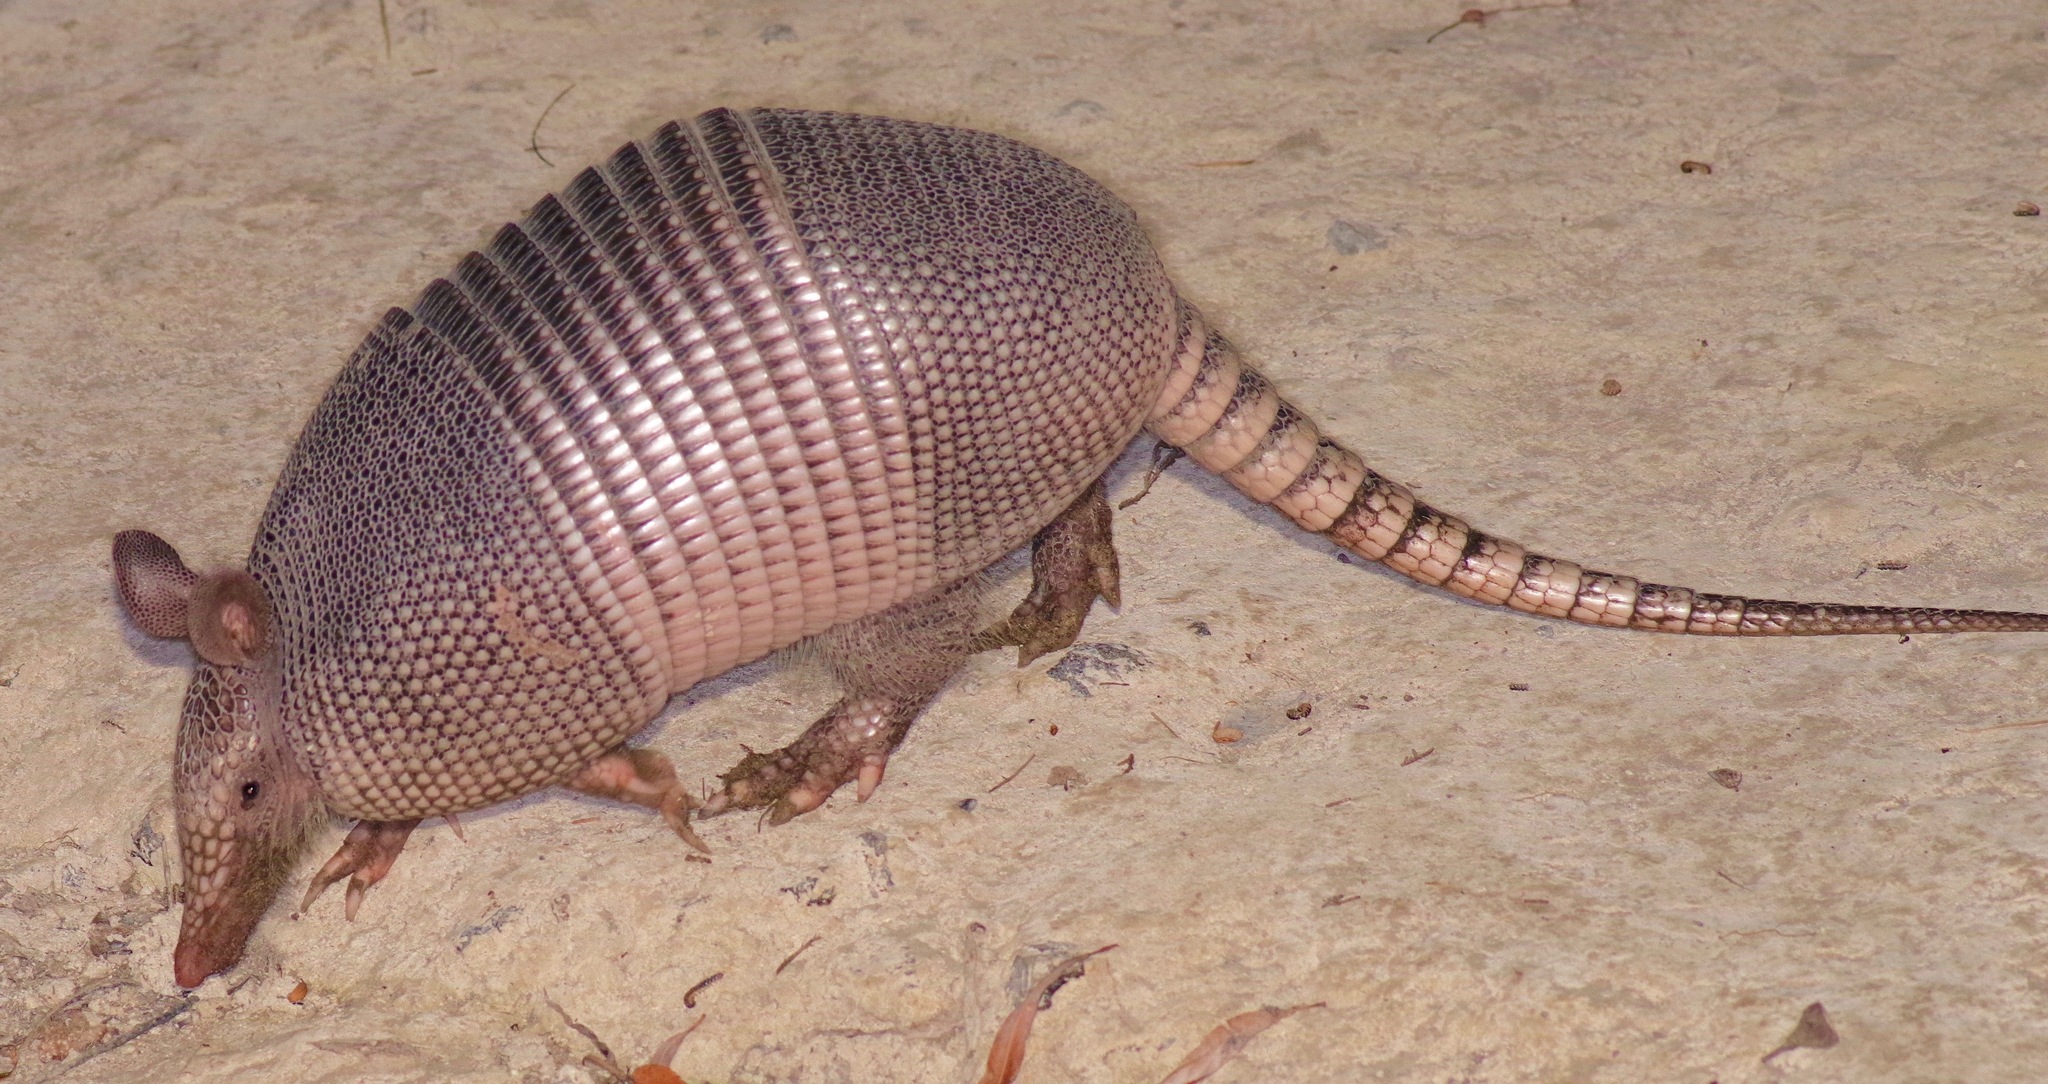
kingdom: Animalia
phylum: Chordata
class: Mammalia
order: Cingulata
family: Dasypodidae
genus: Dasypus
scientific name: Dasypus novemcinctus
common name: Nine-banded armadillo
